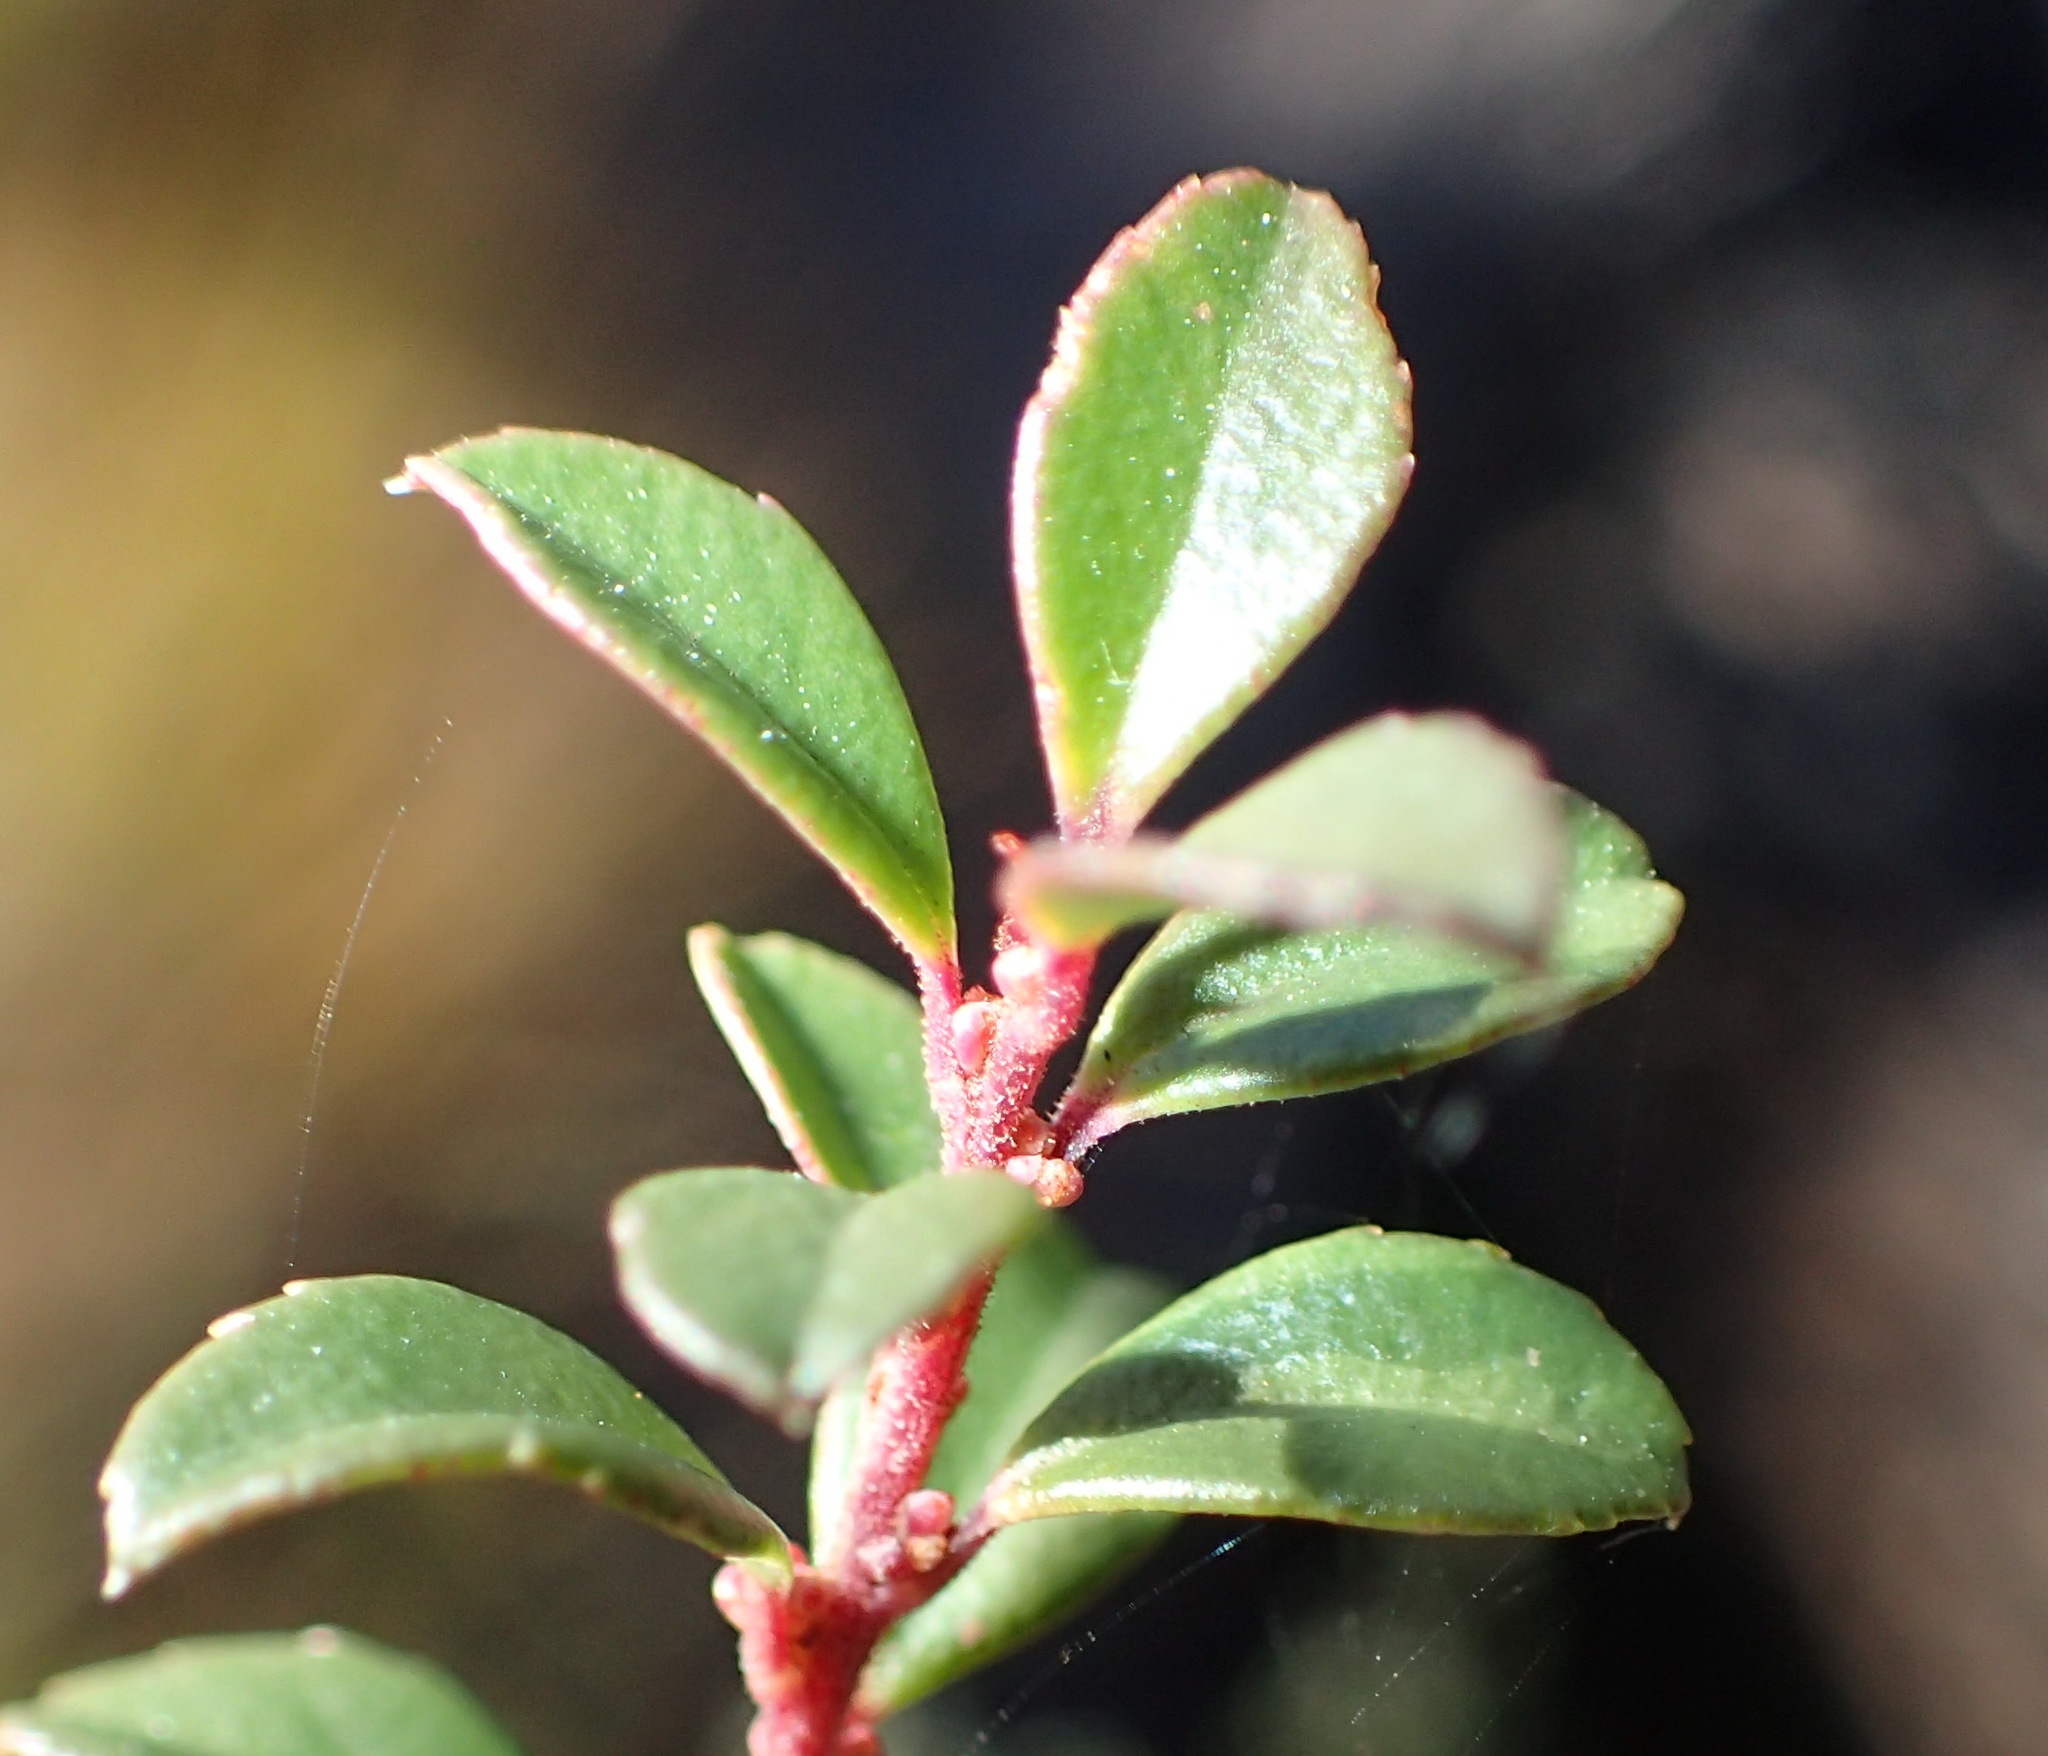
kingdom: Plantae
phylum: Tracheophyta
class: Magnoliopsida
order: Ericales
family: Primulaceae
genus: Myrsine
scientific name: Myrsine africana
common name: African-boxwood
